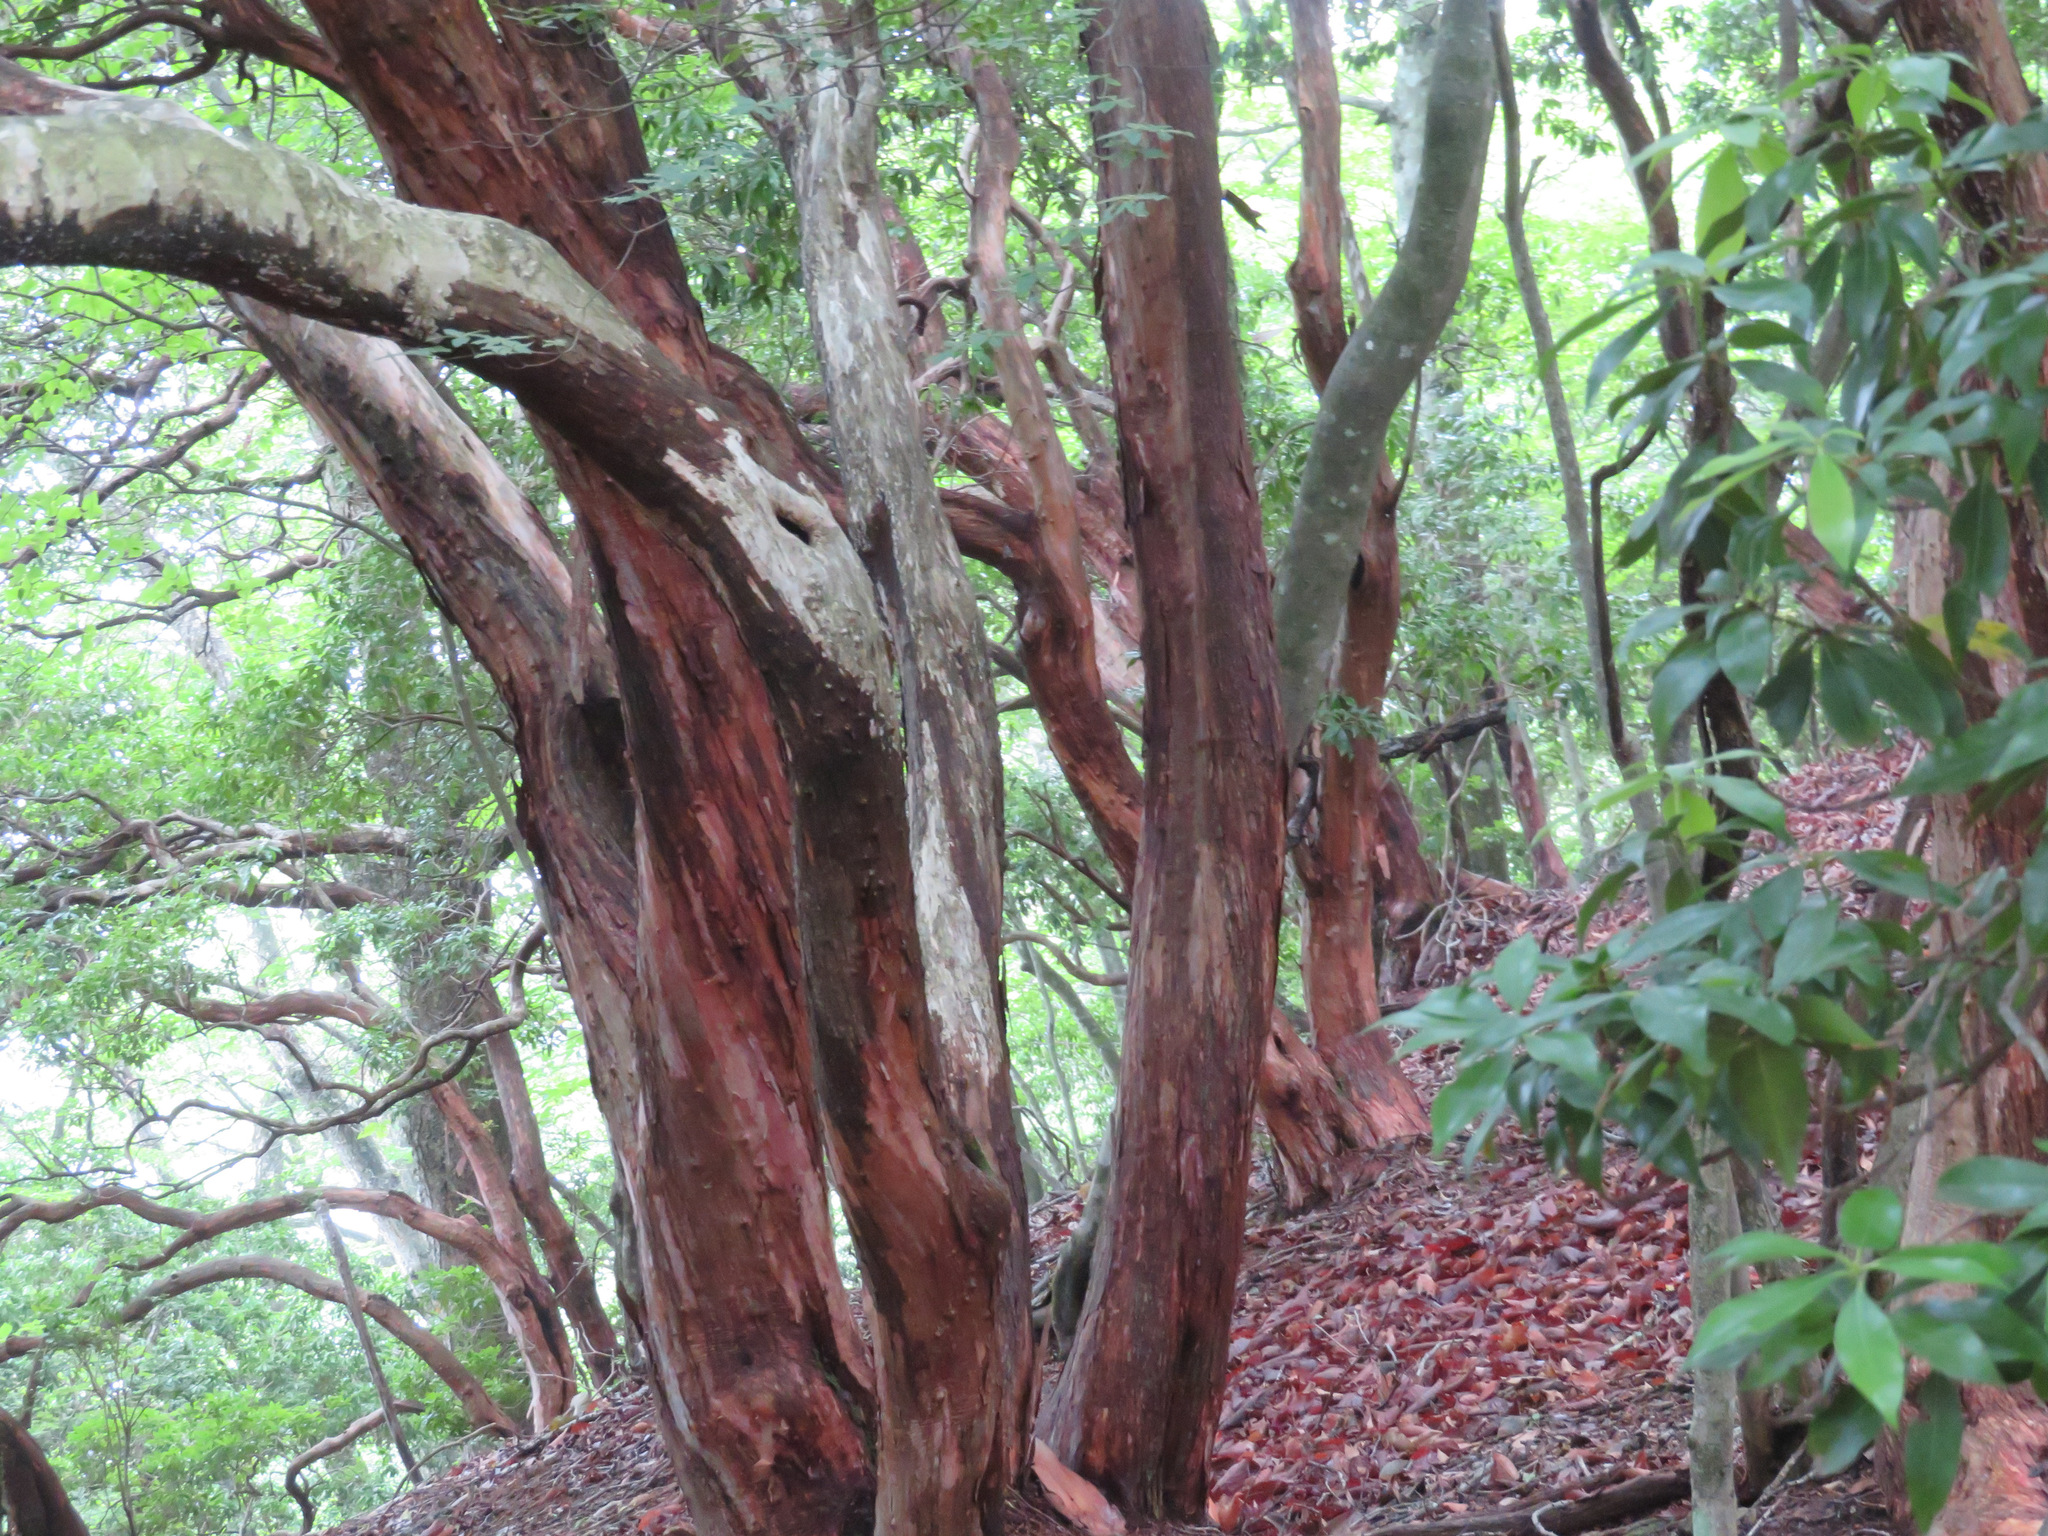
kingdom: Plantae
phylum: Tracheophyta
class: Magnoliopsida
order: Ericales
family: Ericaceae
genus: Pieris
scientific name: Pieris japonica
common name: Japanese pieris
